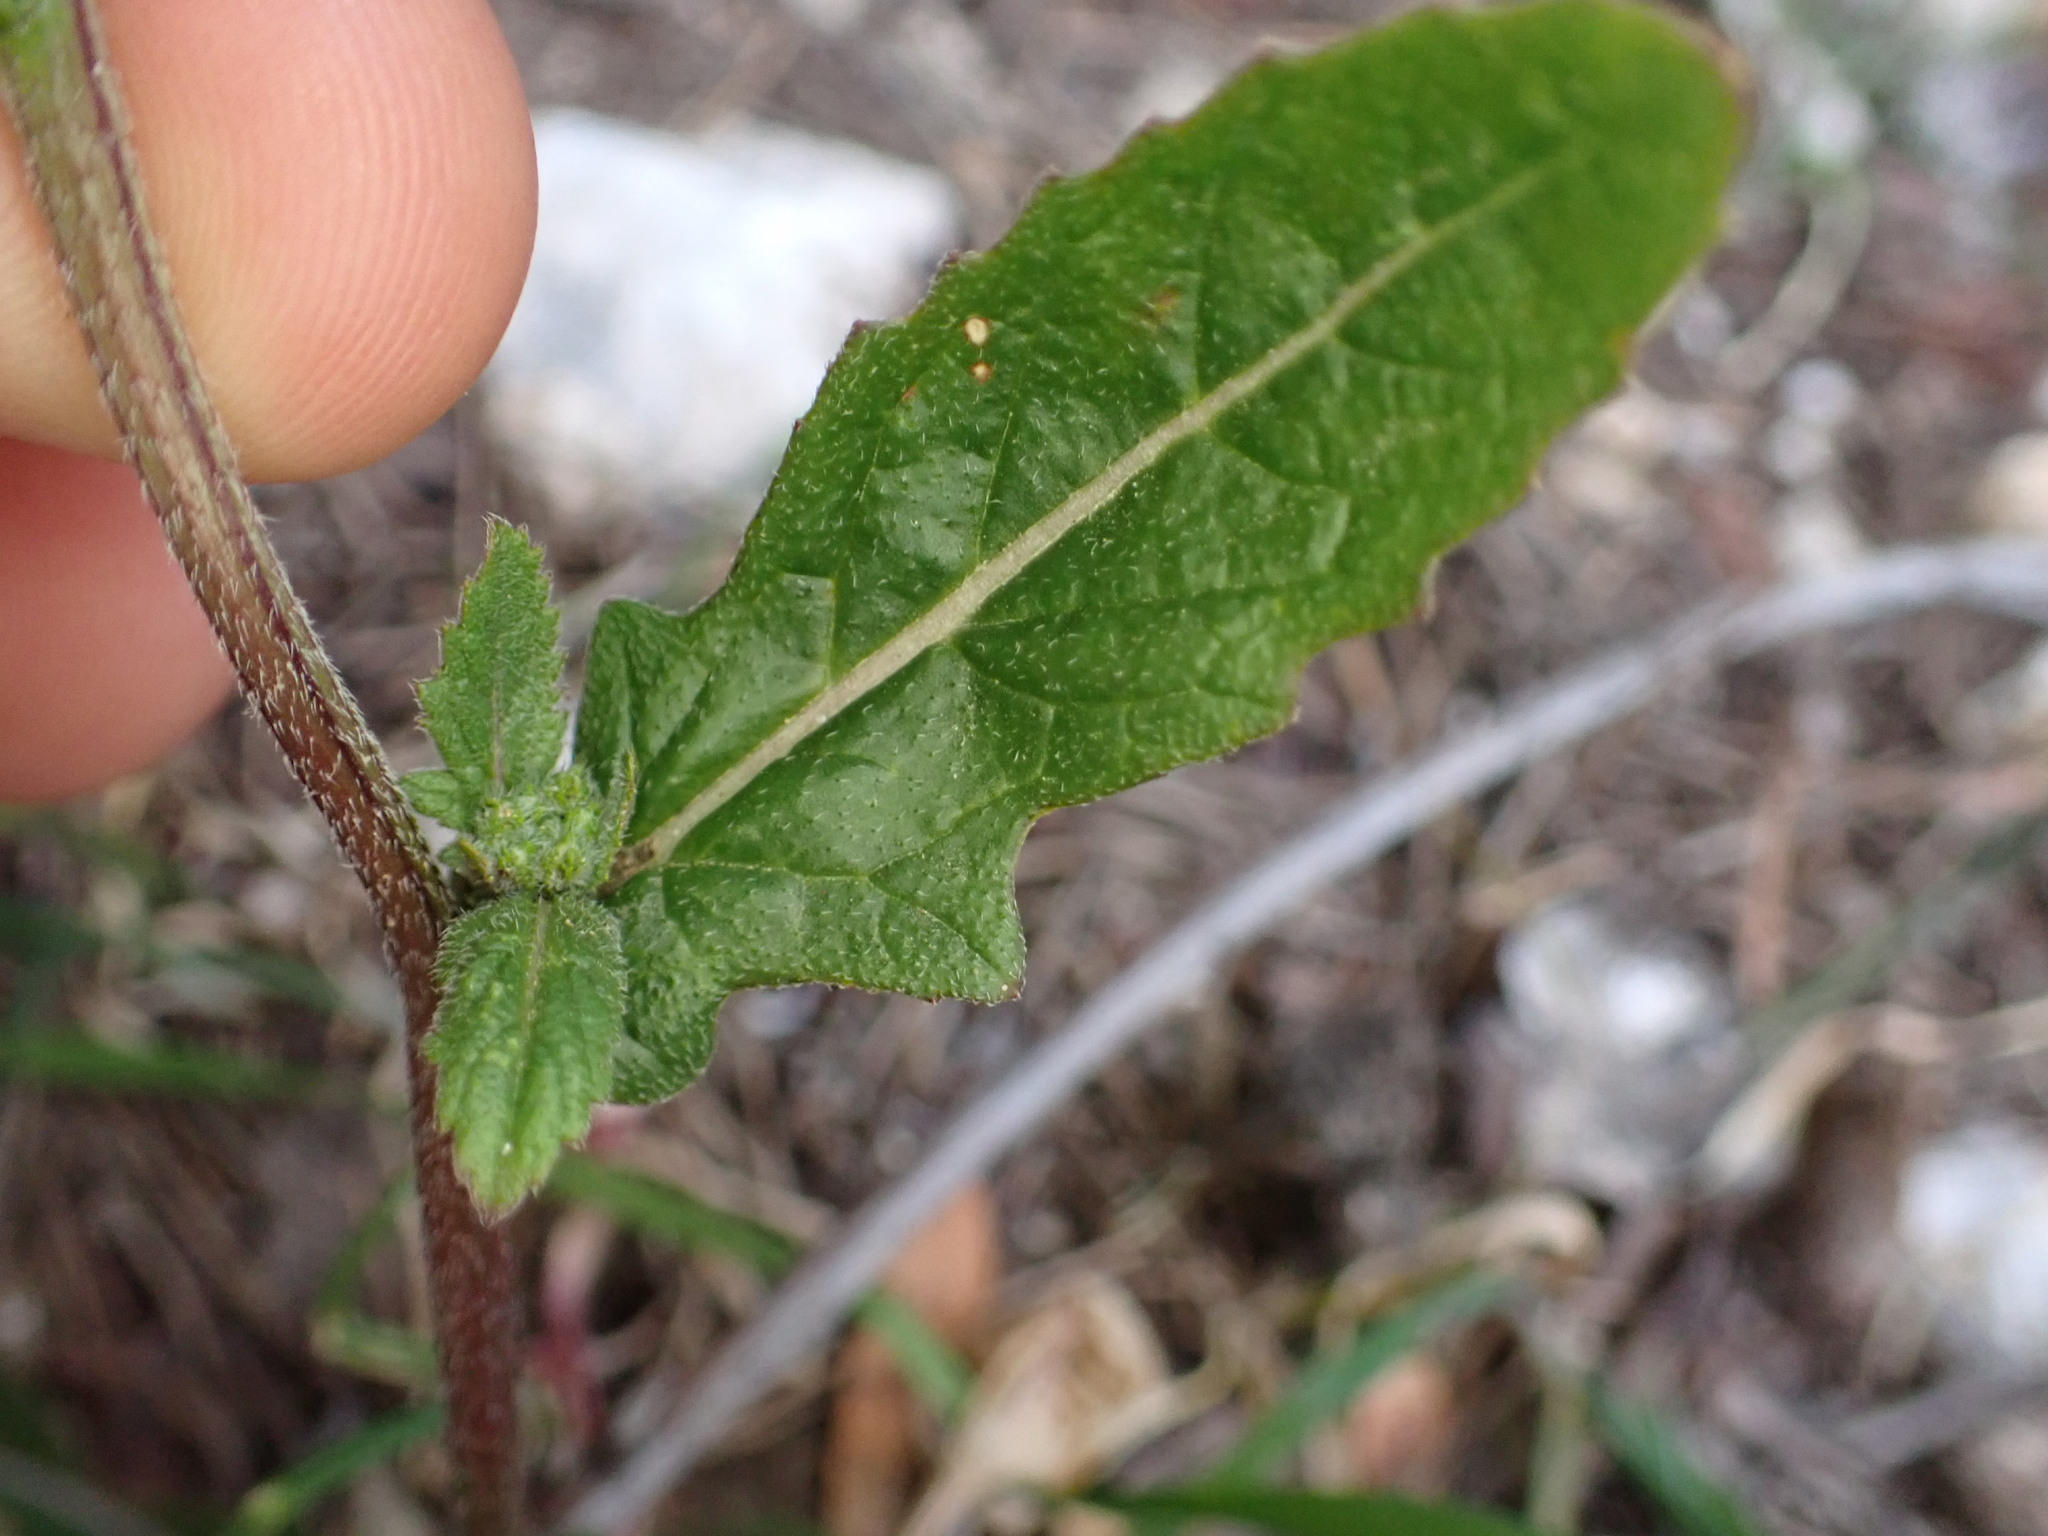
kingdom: Plantae
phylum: Tracheophyta
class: Magnoliopsida
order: Brassicales
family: Brassicaceae
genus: Diplotaxis
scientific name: Diplotaxis erucoides
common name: White rocket
